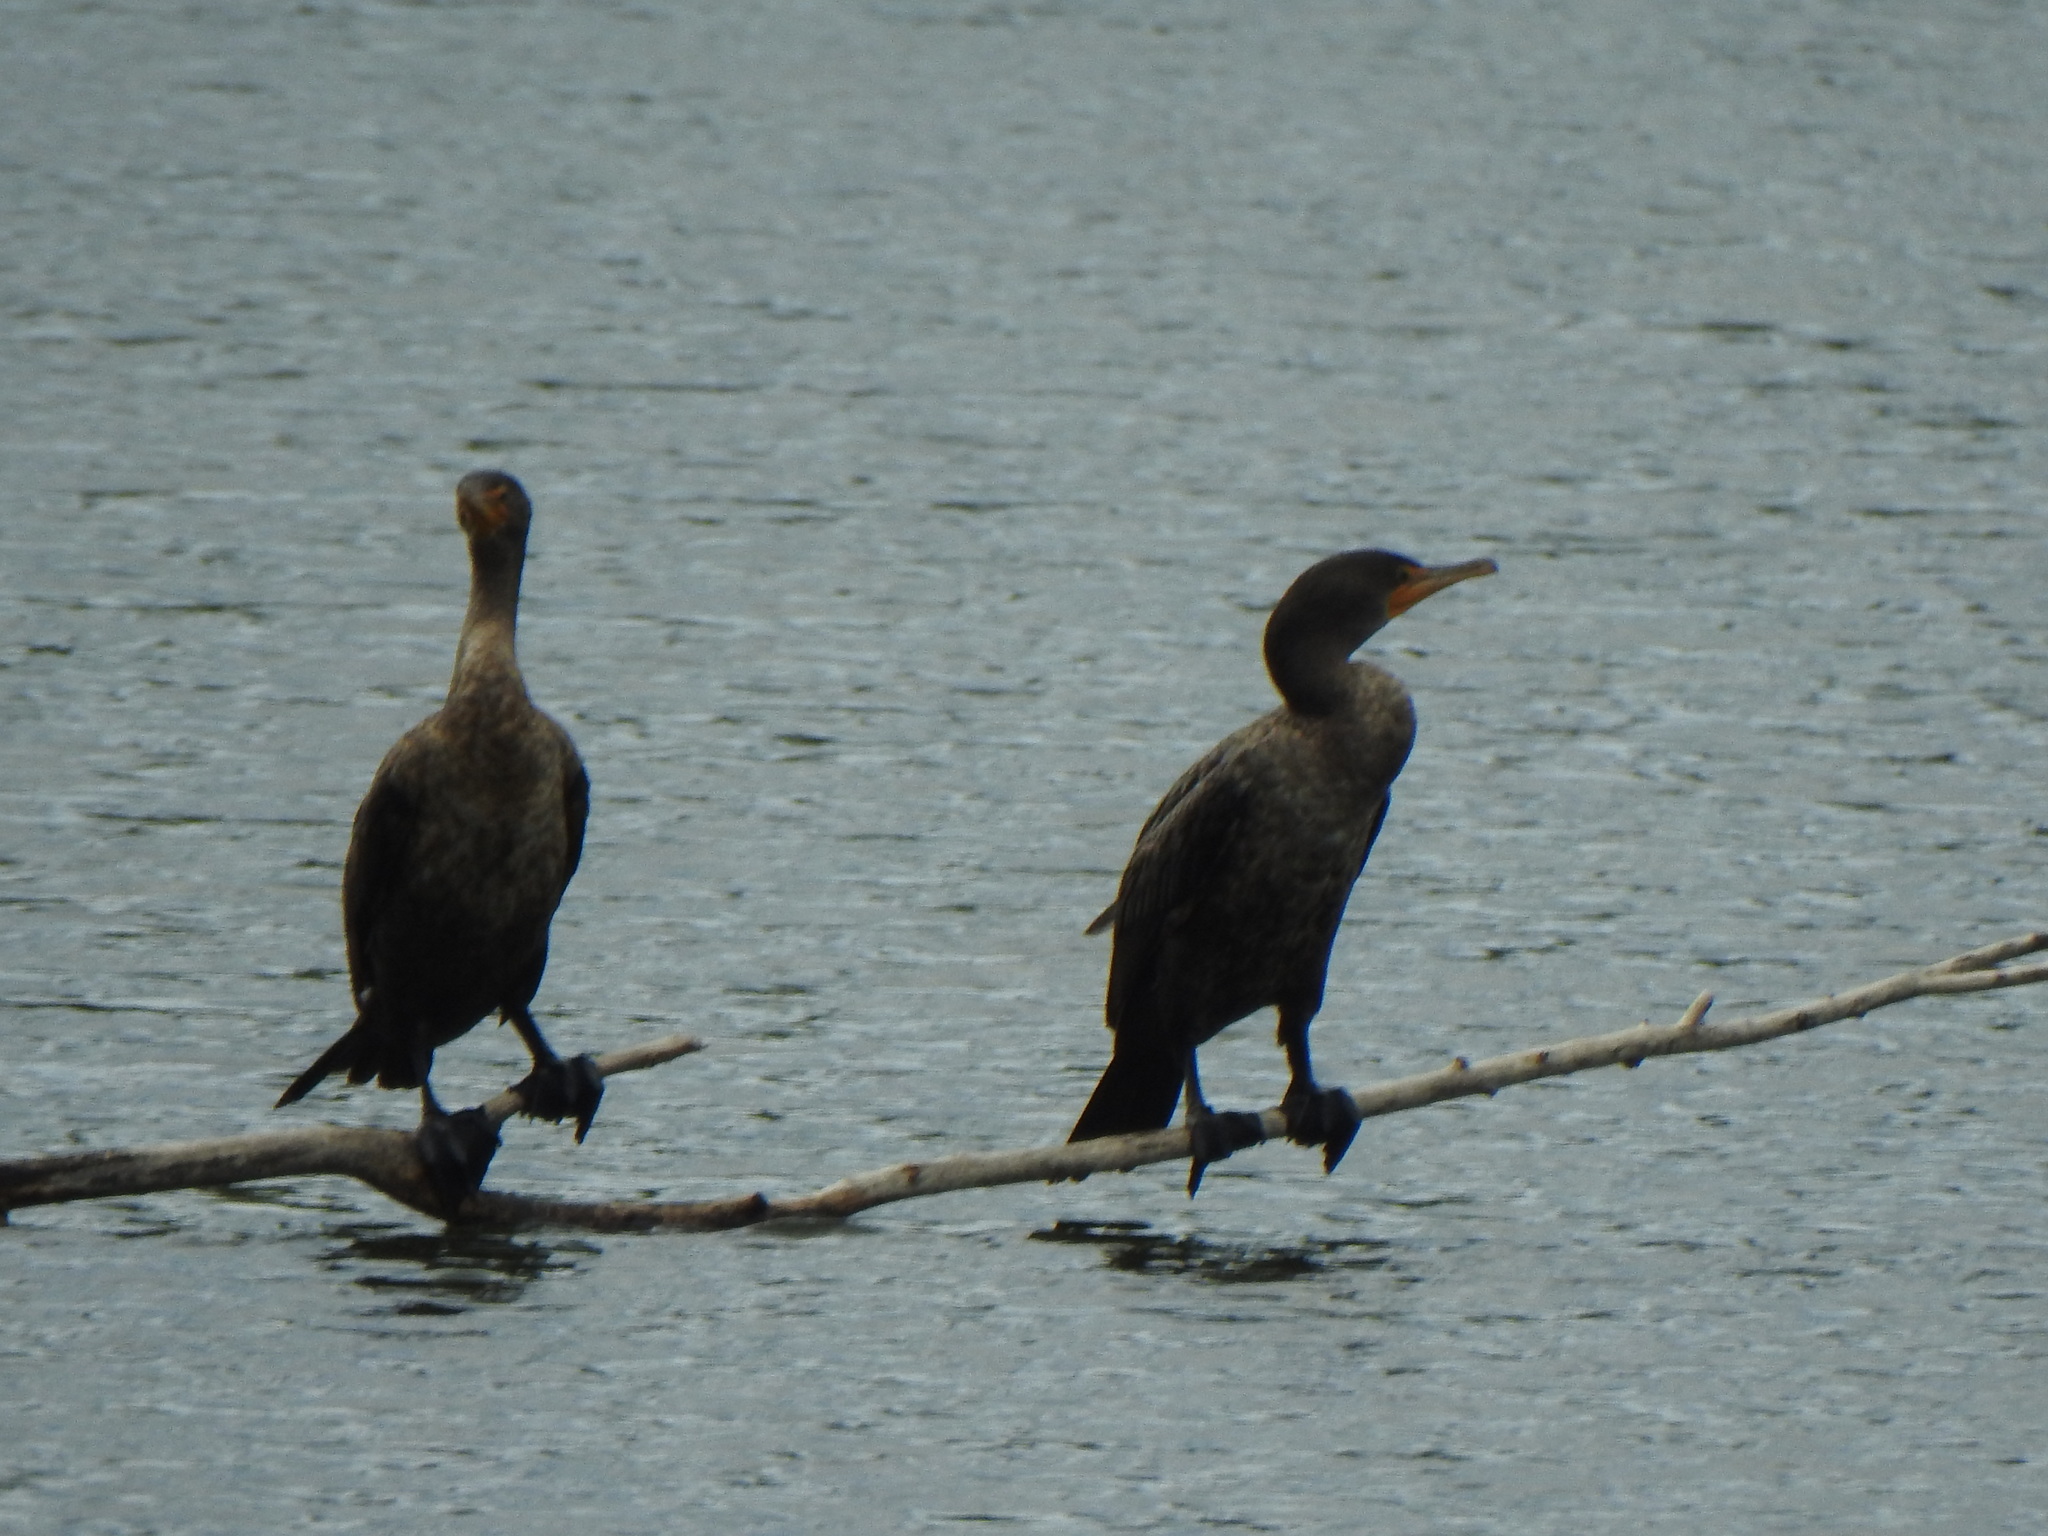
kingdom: Animalia
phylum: Chordata
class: Aves
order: Suliformes
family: Phalacrocoracidae
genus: Phalacrocorax
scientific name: Phalacrocorax auritus
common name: Double-crested cormorant
